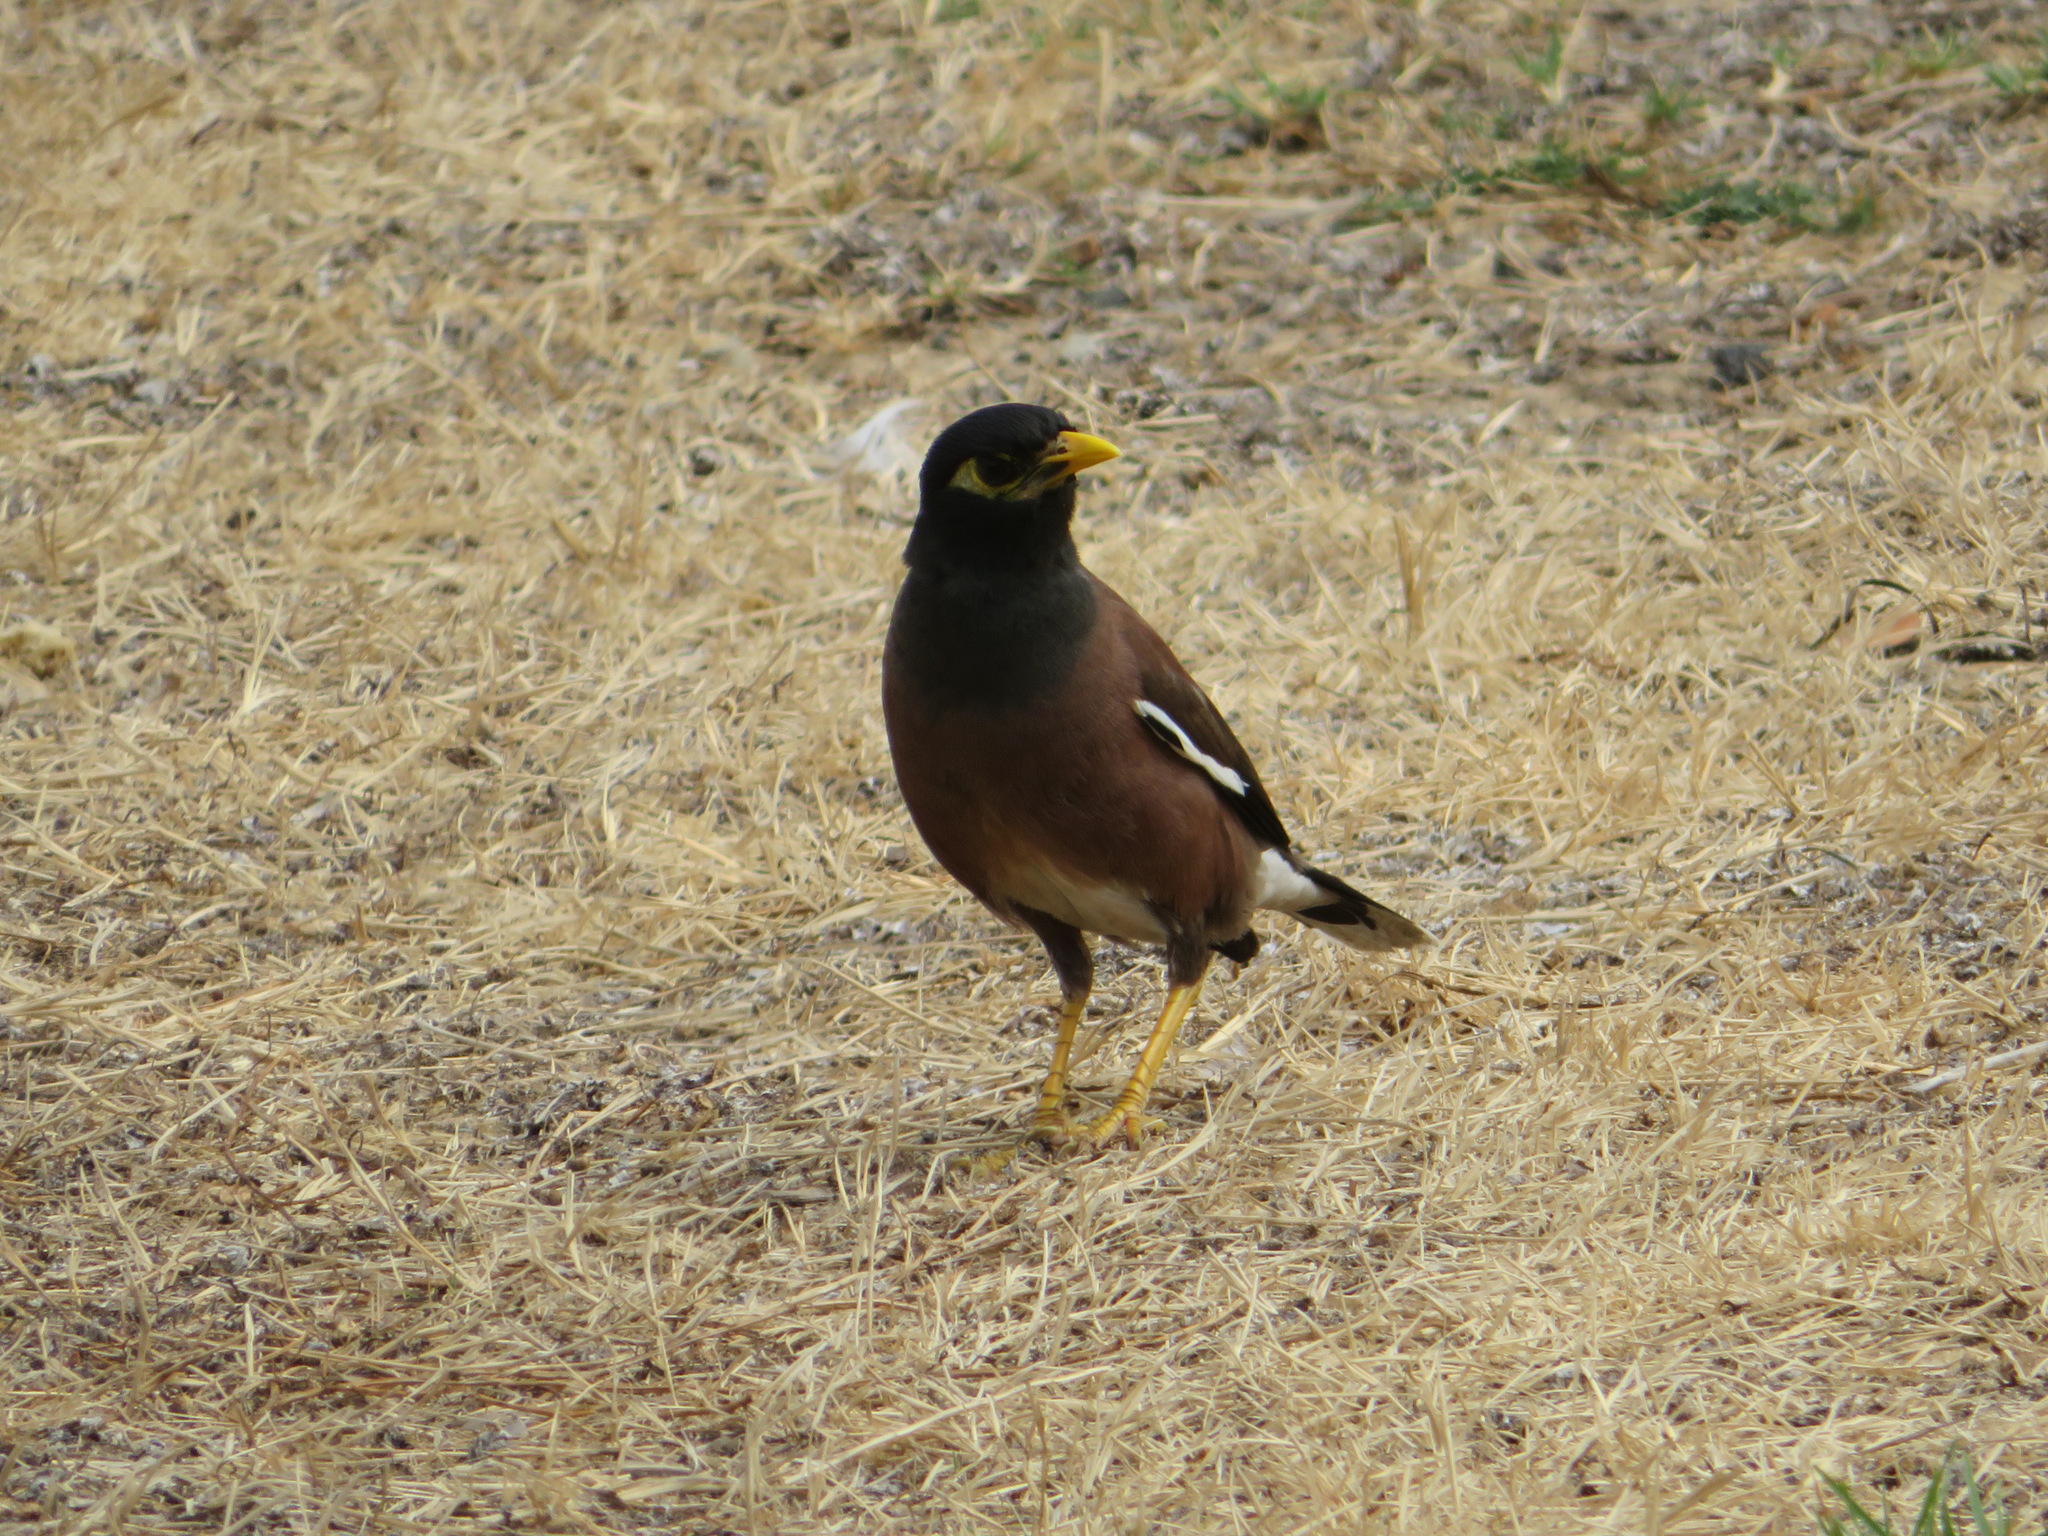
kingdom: Animalia
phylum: Chordata
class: Aves
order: Passeriformes
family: Sturnidae
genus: Acridotheres
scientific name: Acridotheres tristis
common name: Common myna
